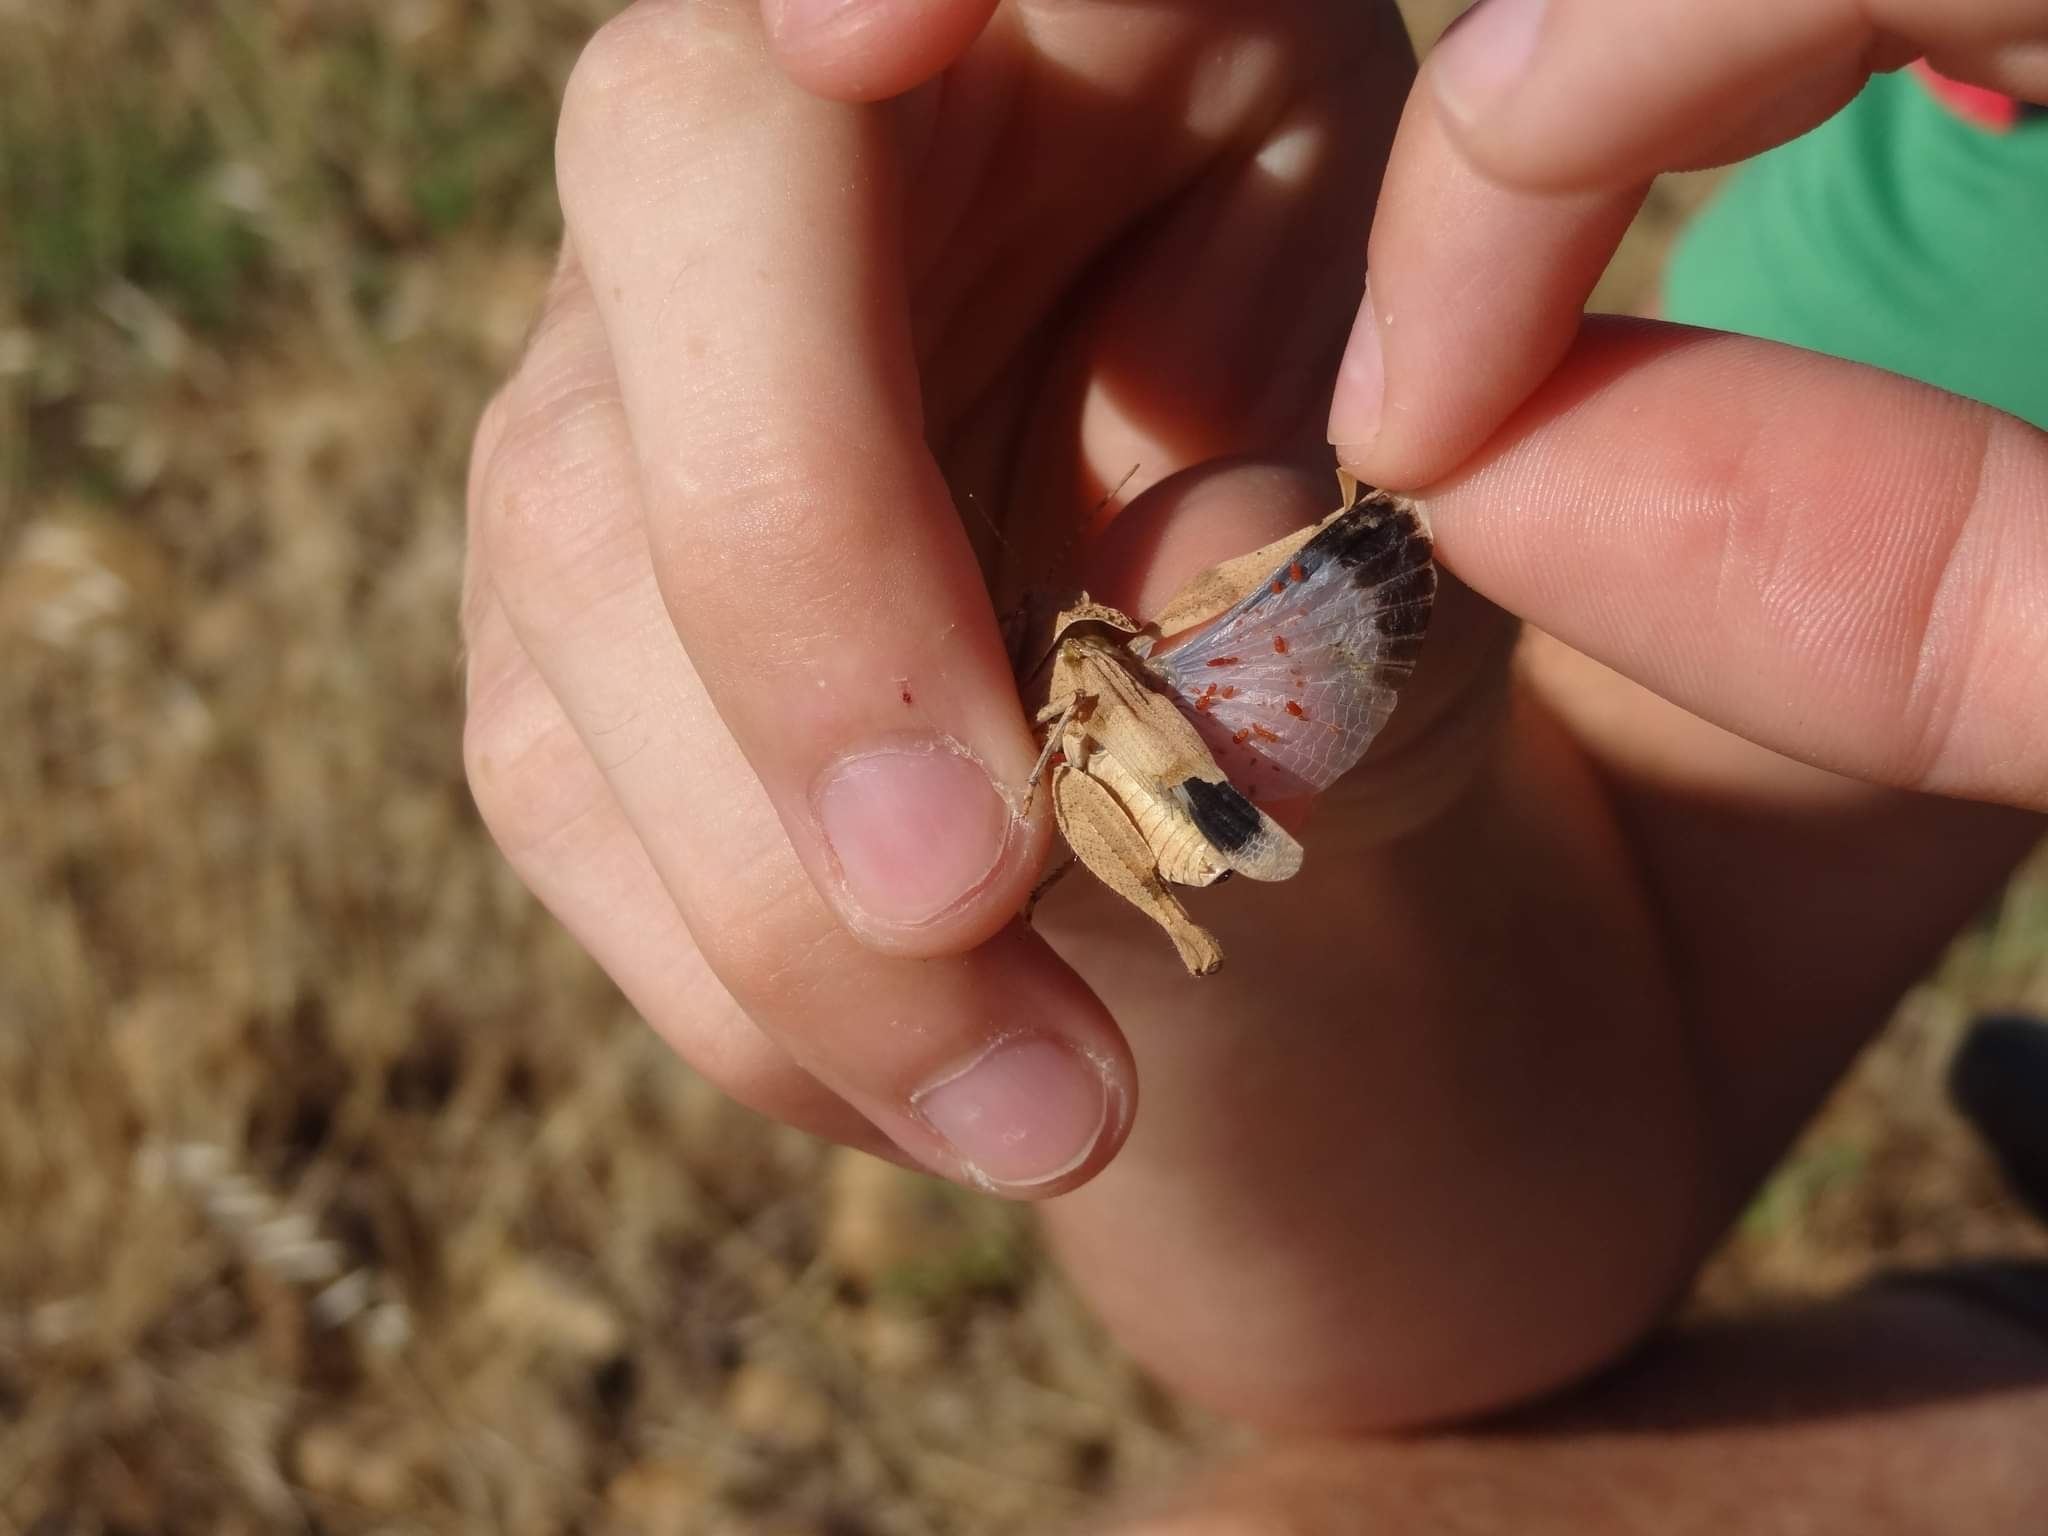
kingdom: Animalia
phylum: Arthropoda
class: Insecta
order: Orthoptera
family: Acrididae
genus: Oedipoda
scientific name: Oedipoda charpentieri
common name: Western band-winged grasshopper
